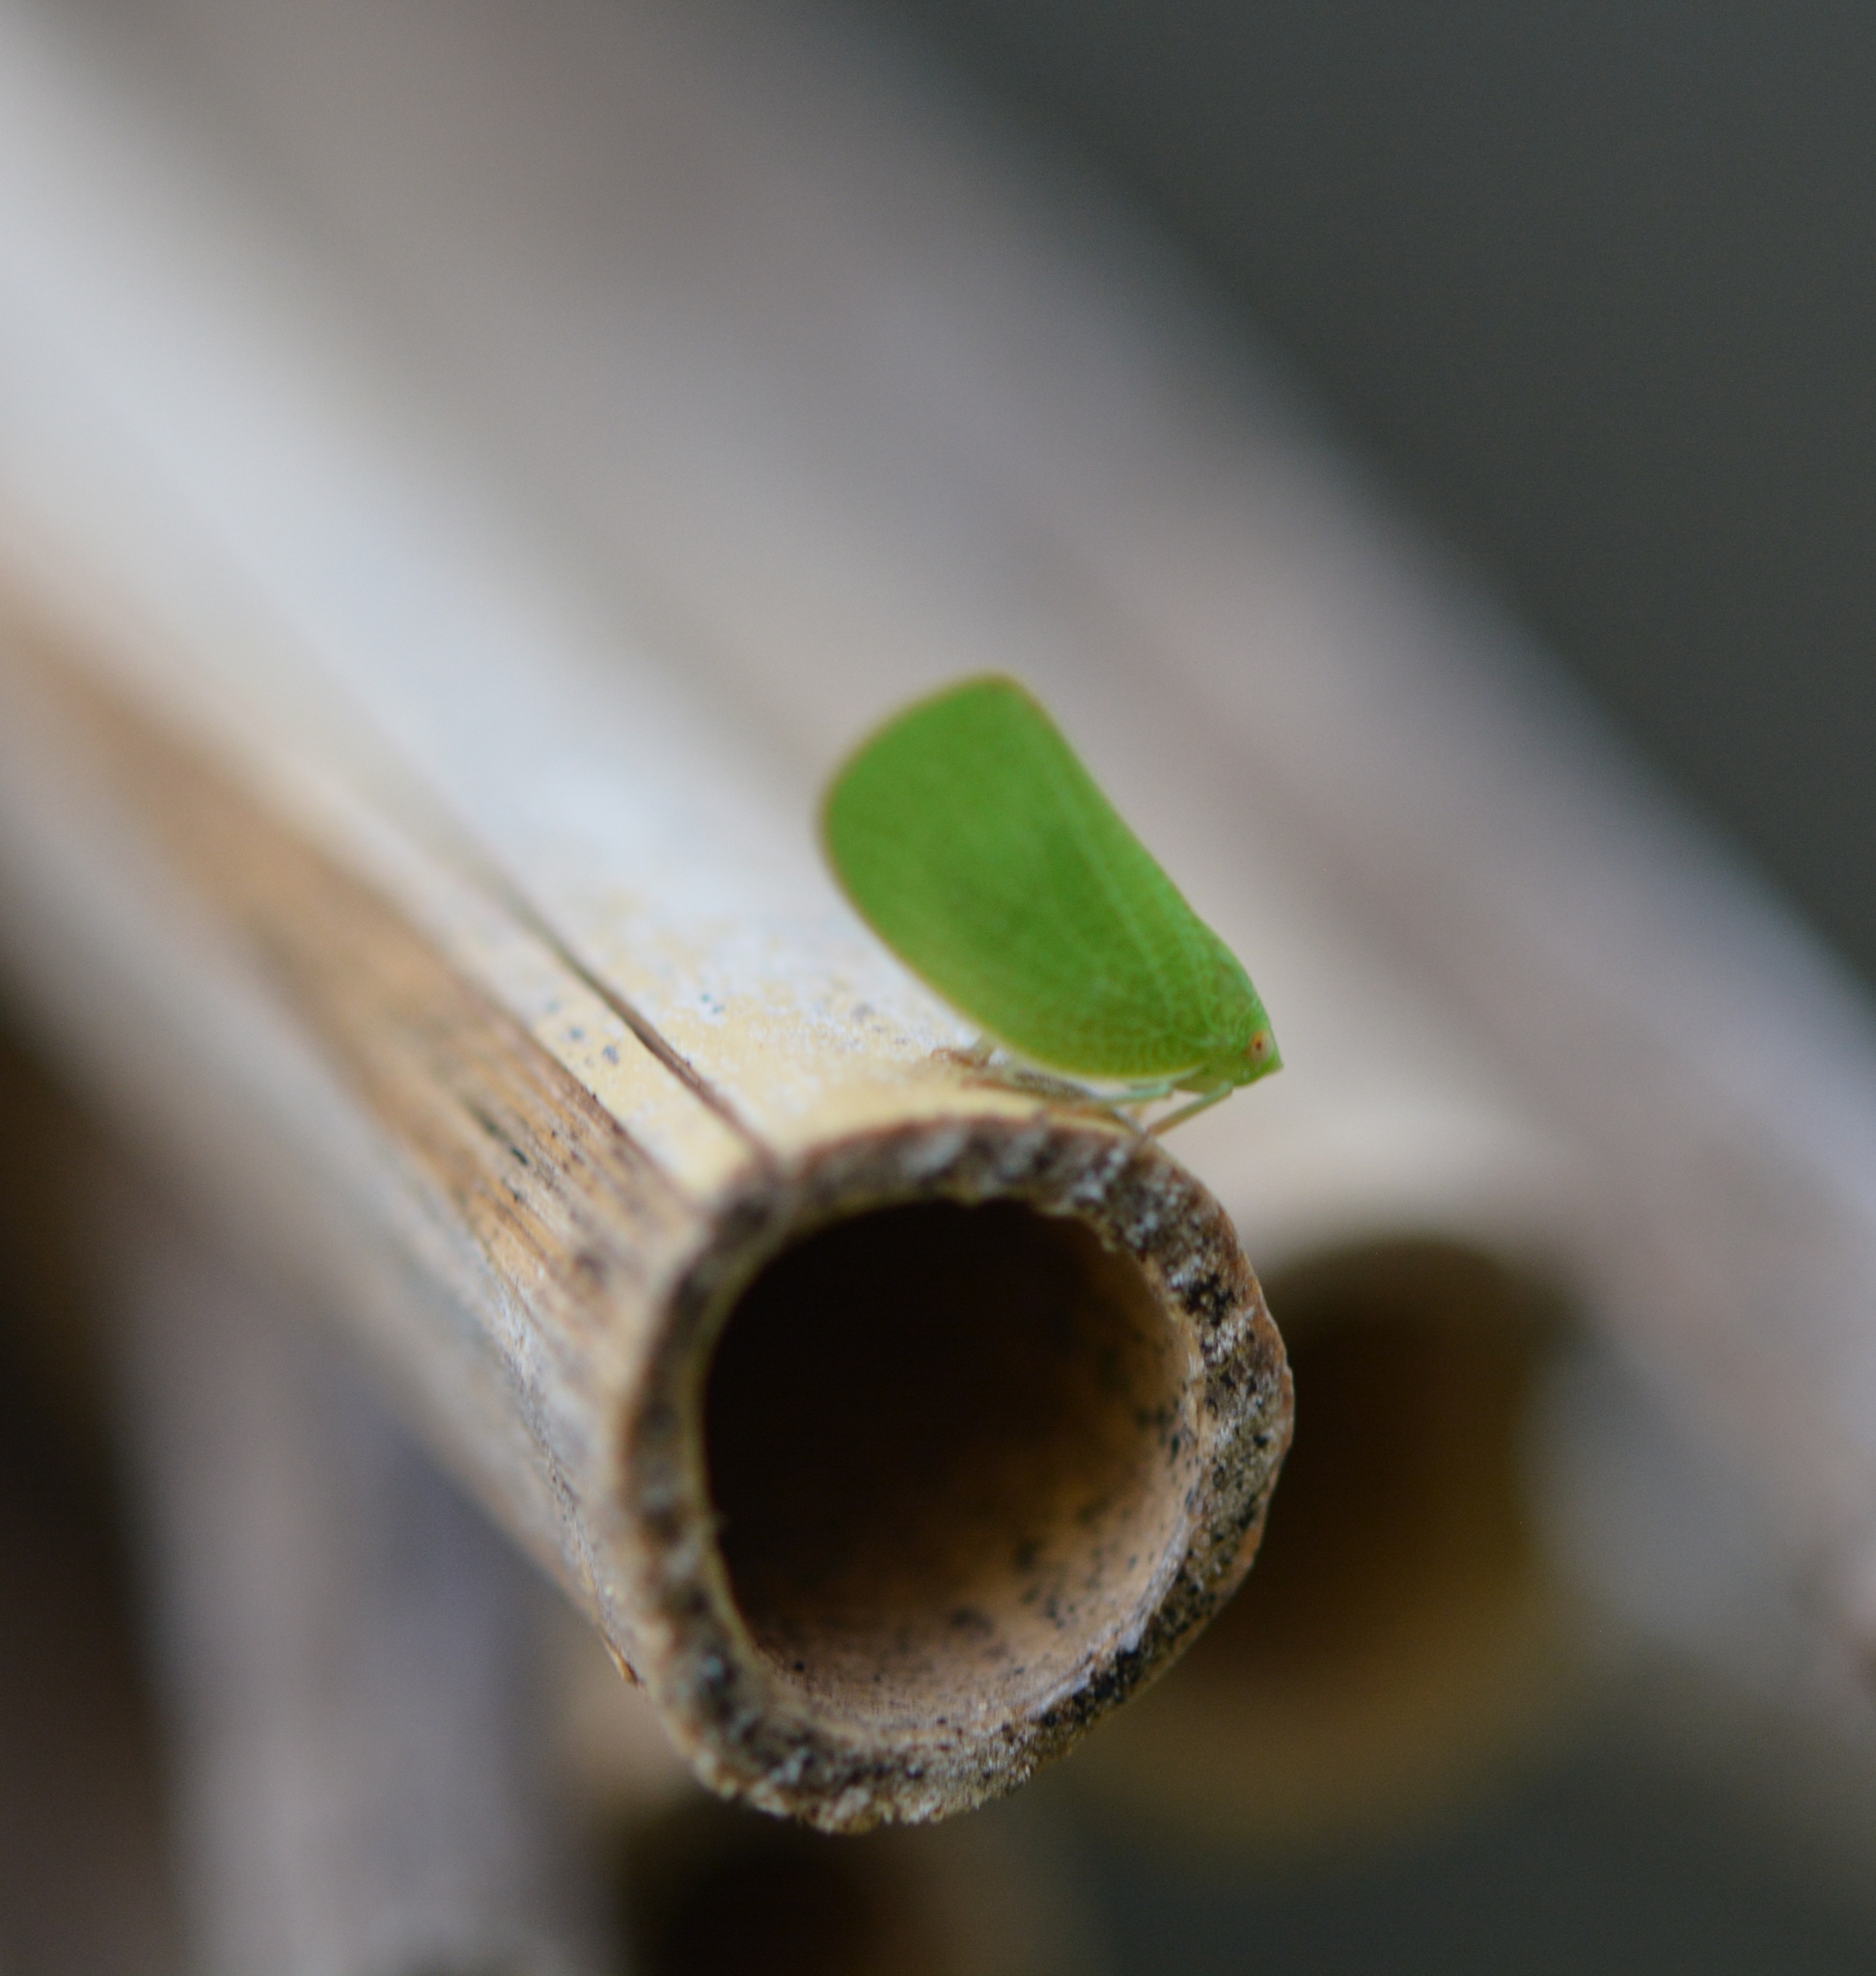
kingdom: Animalia
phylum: Arthropoda
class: Insecta
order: Hemiptera
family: Acanaloniidae
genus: Acanalonia
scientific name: Acanalonia conica
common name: Green cone-headed planthopper
